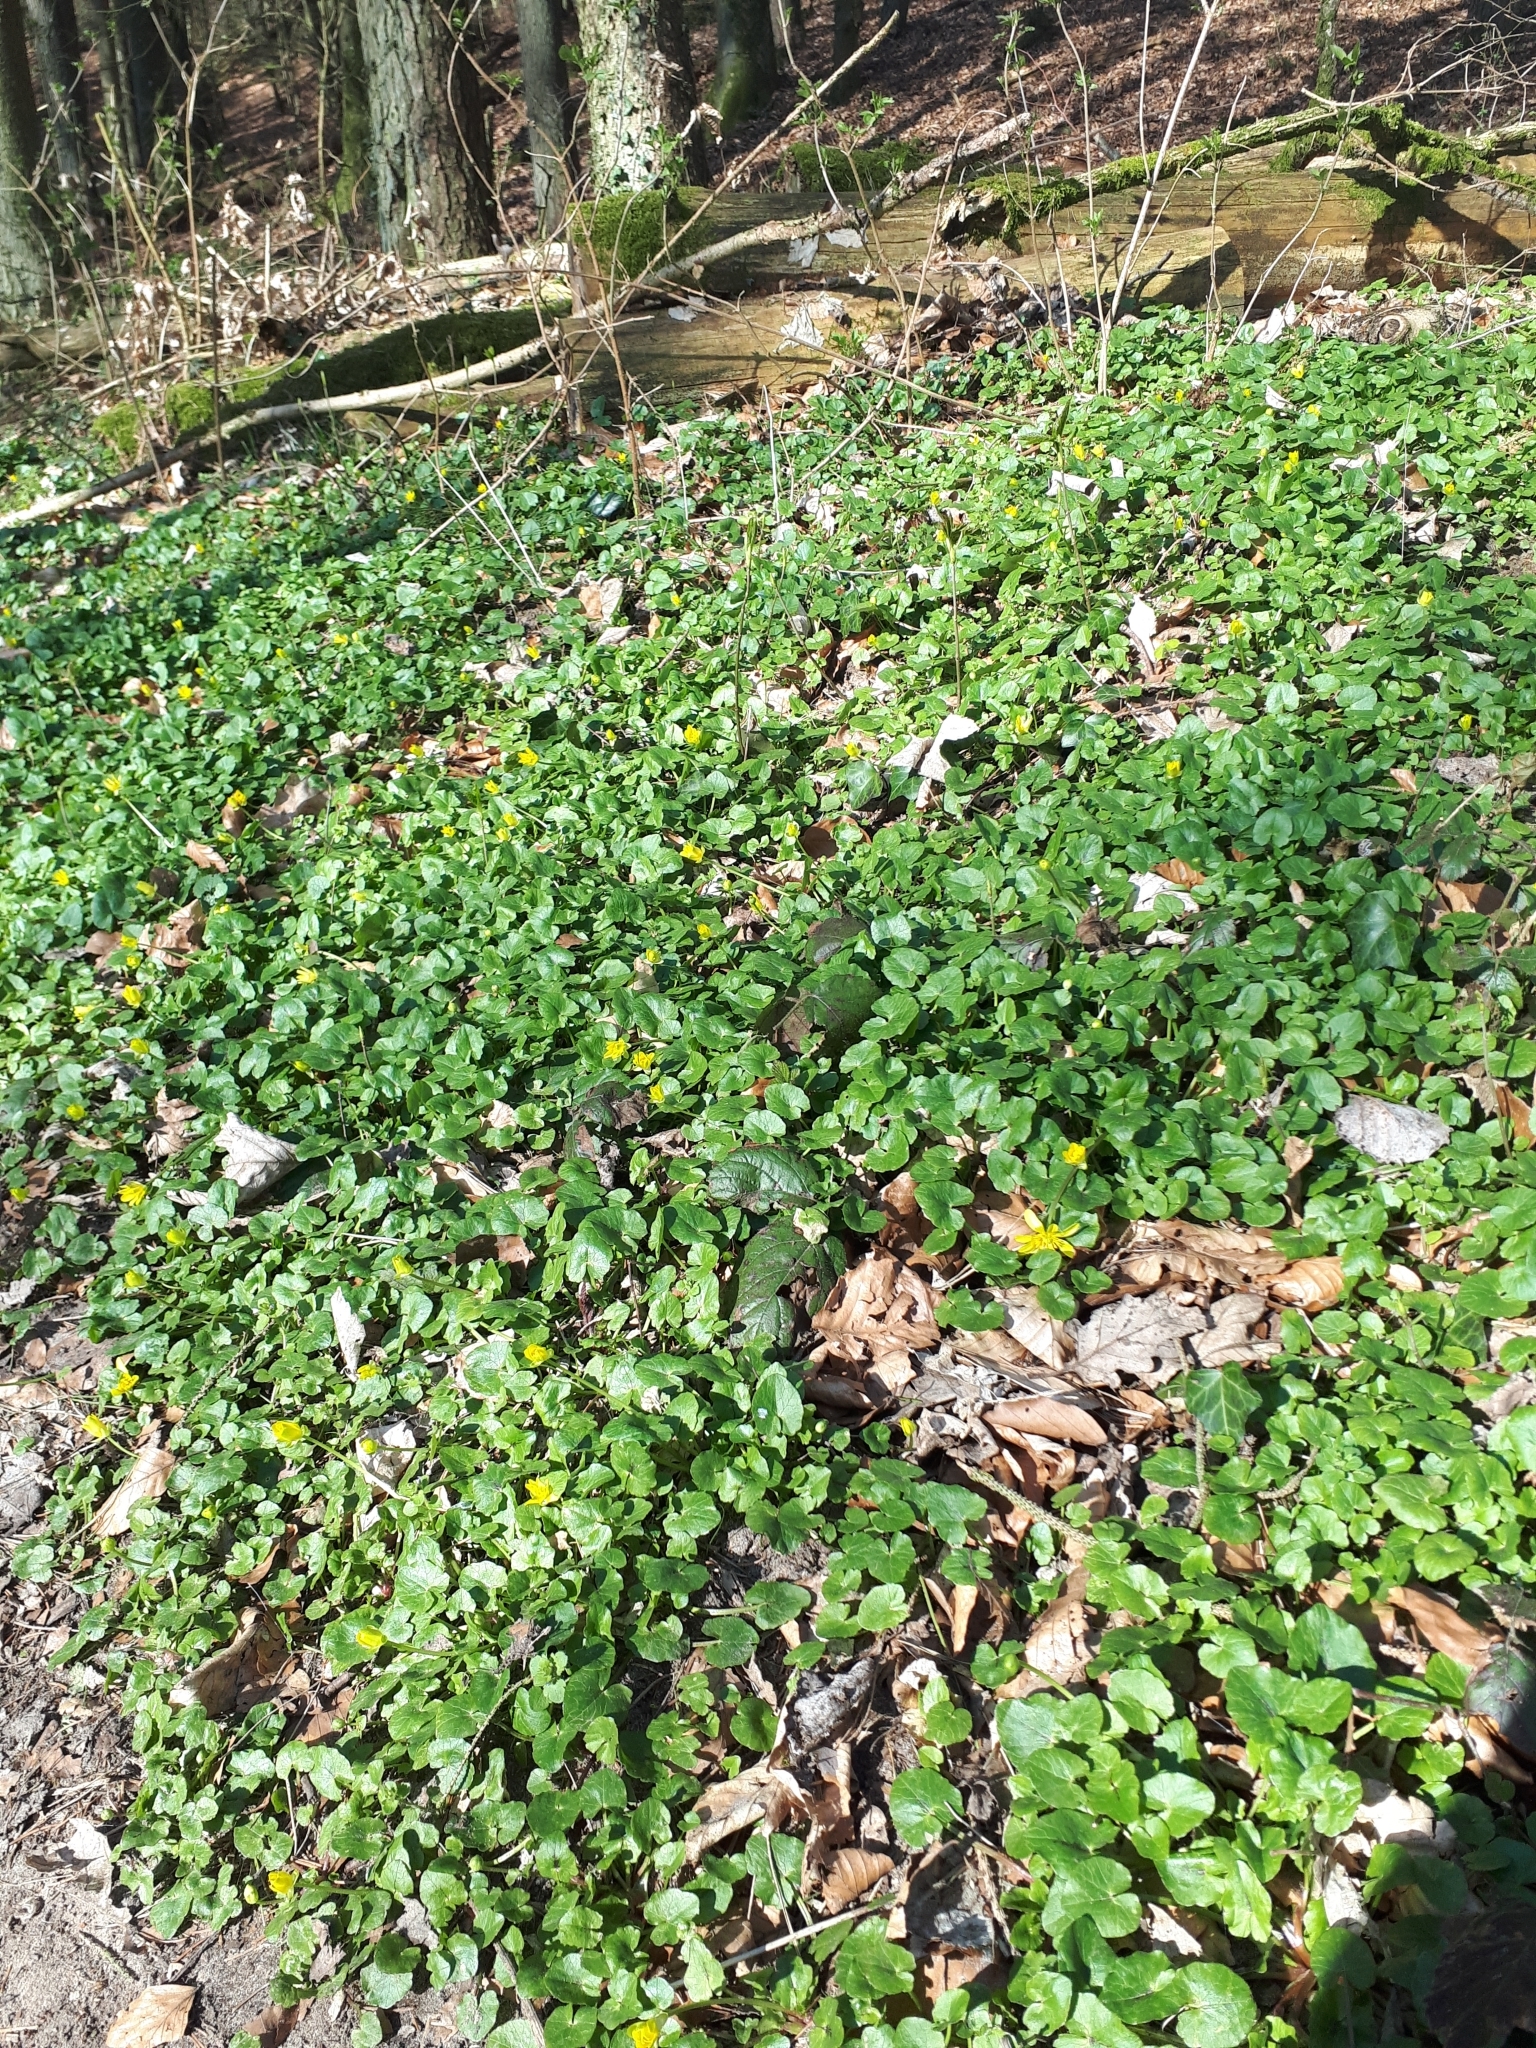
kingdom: Plantae
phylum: Tracheophyta
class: Magnoliopsida
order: Ranunculales
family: Ranunculaceae
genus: Ficaria
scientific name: Ficaria verna
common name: Lesser celandine
